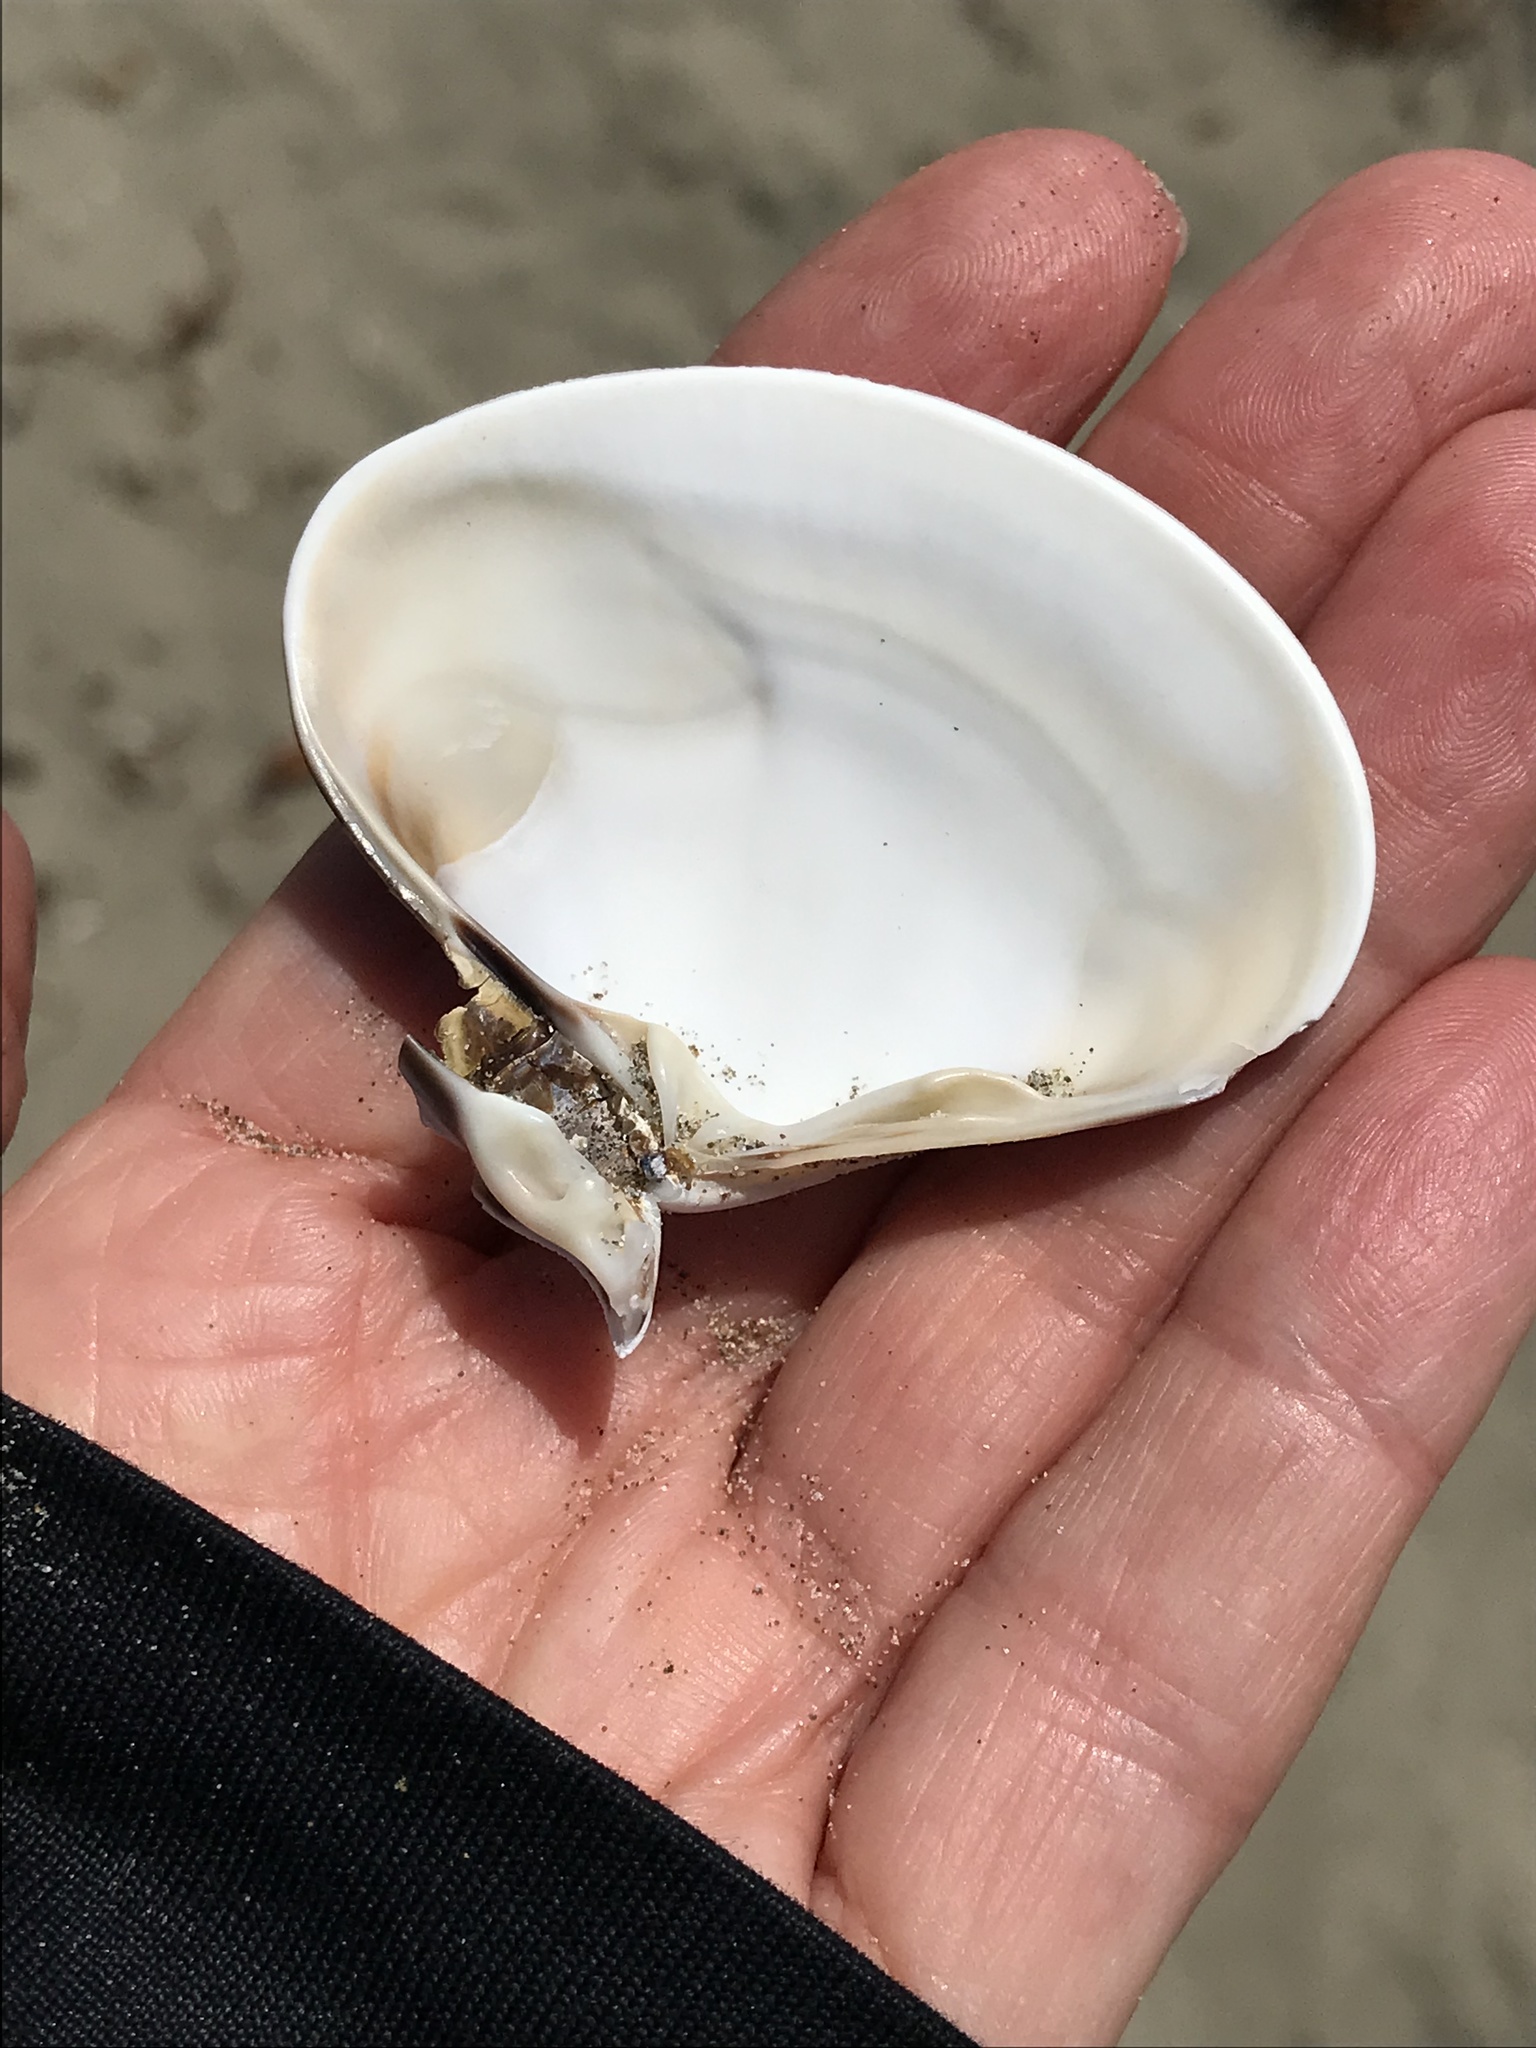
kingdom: Animalia
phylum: Mollusca
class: Bivalvia
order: Venerida
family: Veneridae
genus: Tivela
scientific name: Tivela stultorum
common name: Pismo clam
